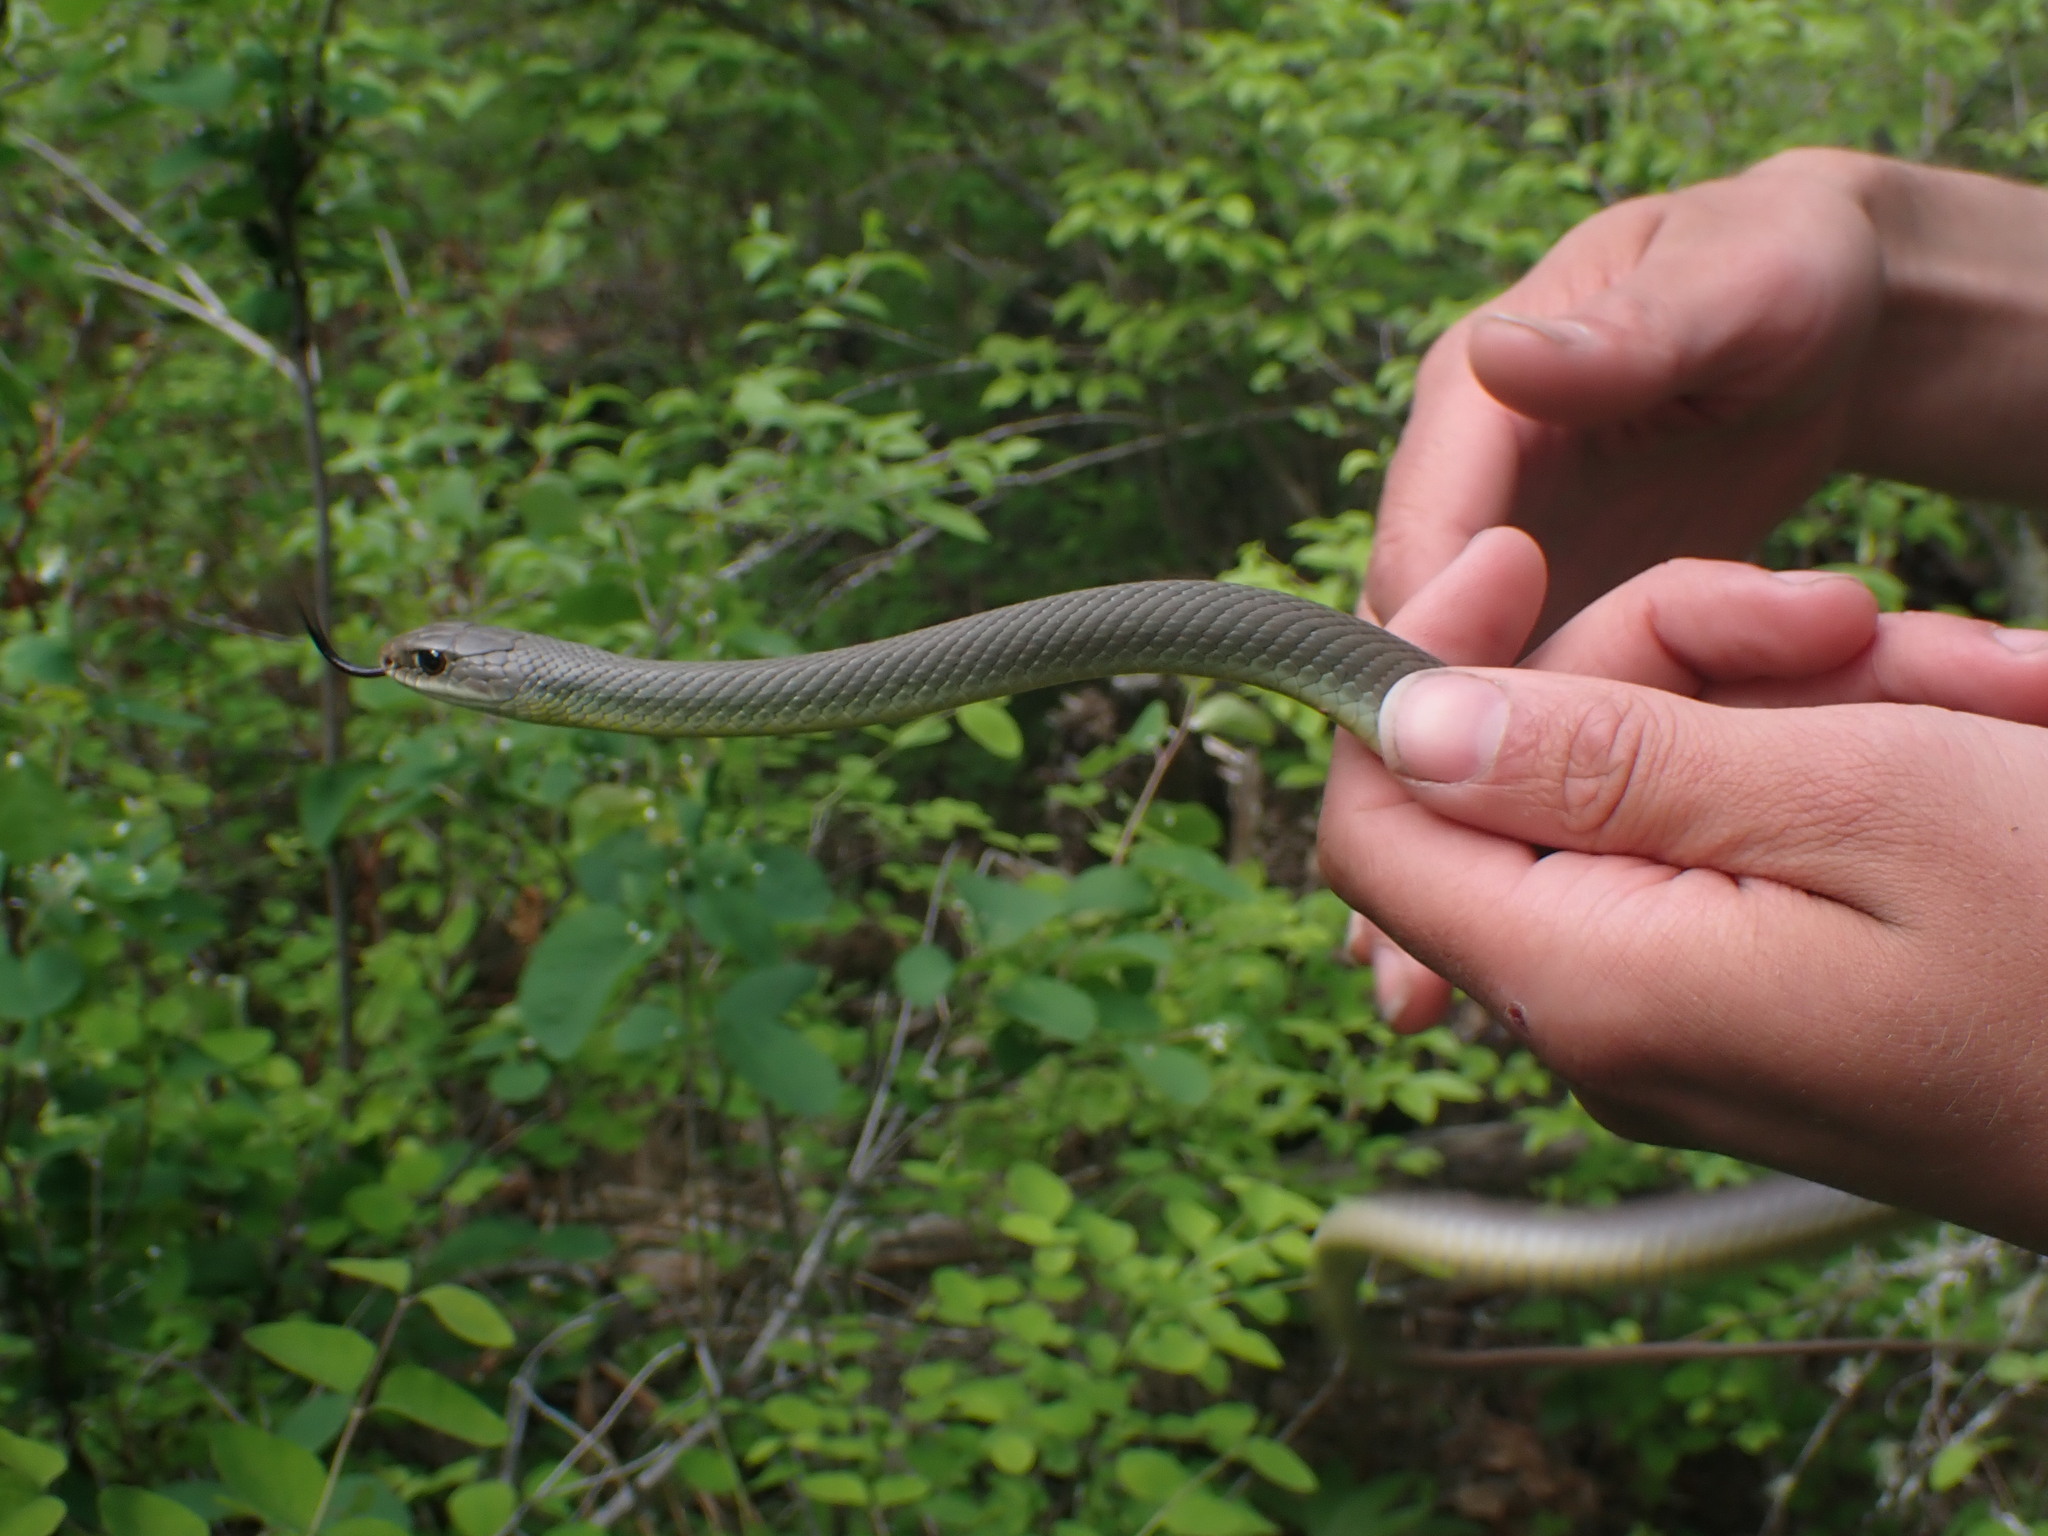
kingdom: Animalia
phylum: Chordata
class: Squamata
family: Colubridae
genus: Coluber
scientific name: Coluber constrictor
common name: Eastern racer
